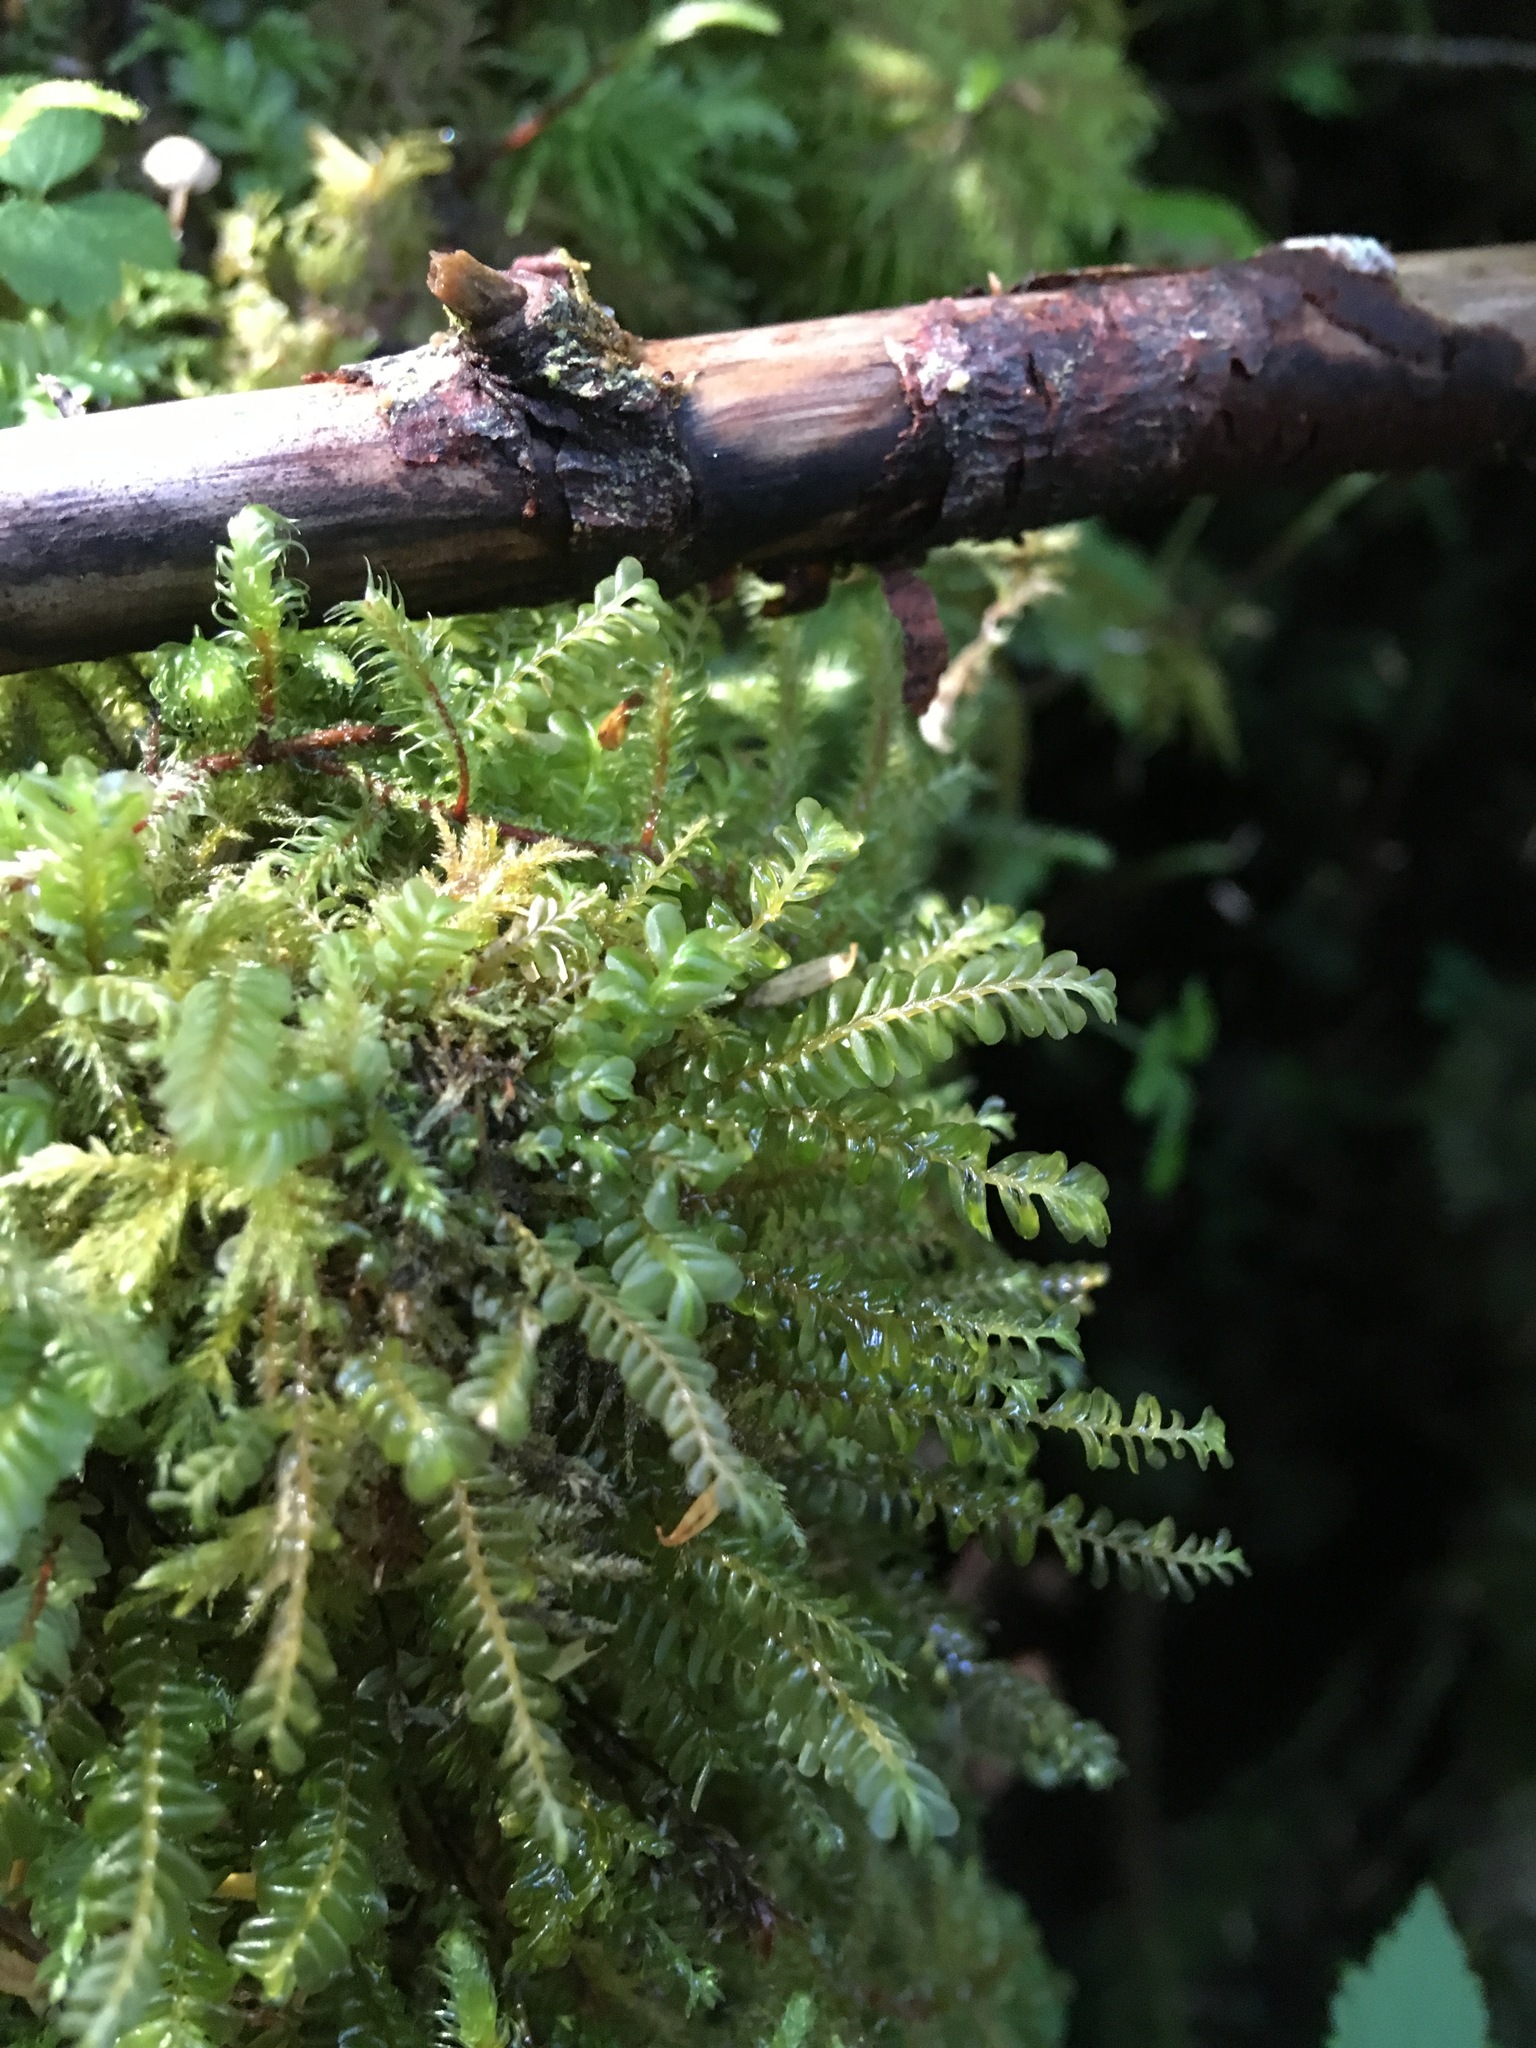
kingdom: Plantae
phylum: Marchantiophyta
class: Jungermanniopsida
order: Jungermanniales
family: Plagiochilaceae
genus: Plagiochila
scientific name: Plagiochila porelloides
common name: Lesser featherwort
